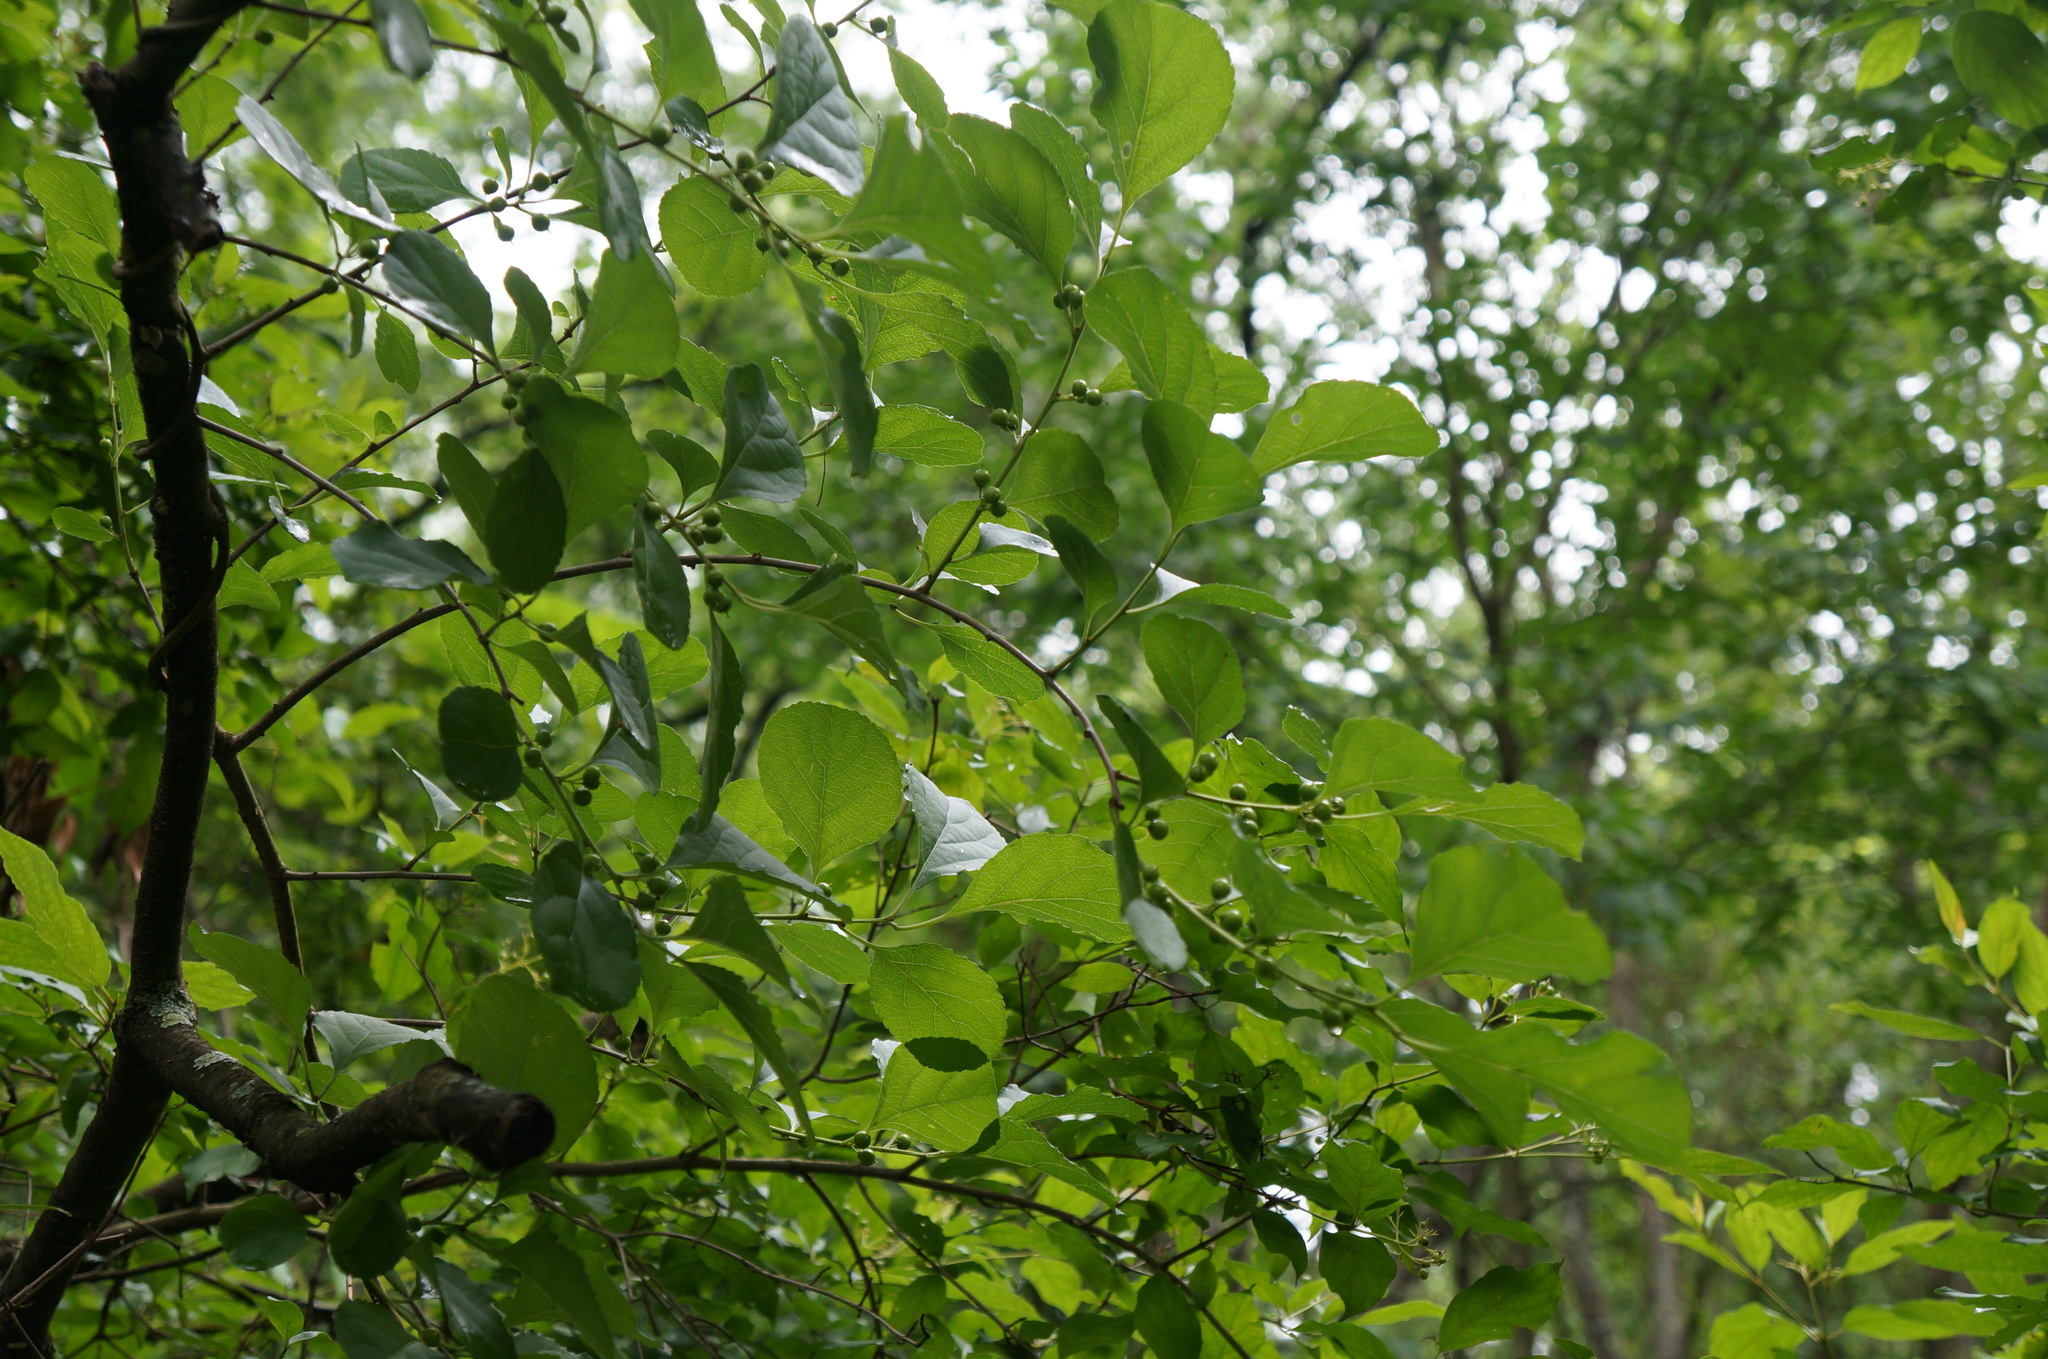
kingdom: Plantae
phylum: Tracheophyta
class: Magnoliopsida
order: Celastrales
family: Celastraceae
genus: Celastrus
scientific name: Celastrus orbiculatus
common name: Oriental bittersweet
